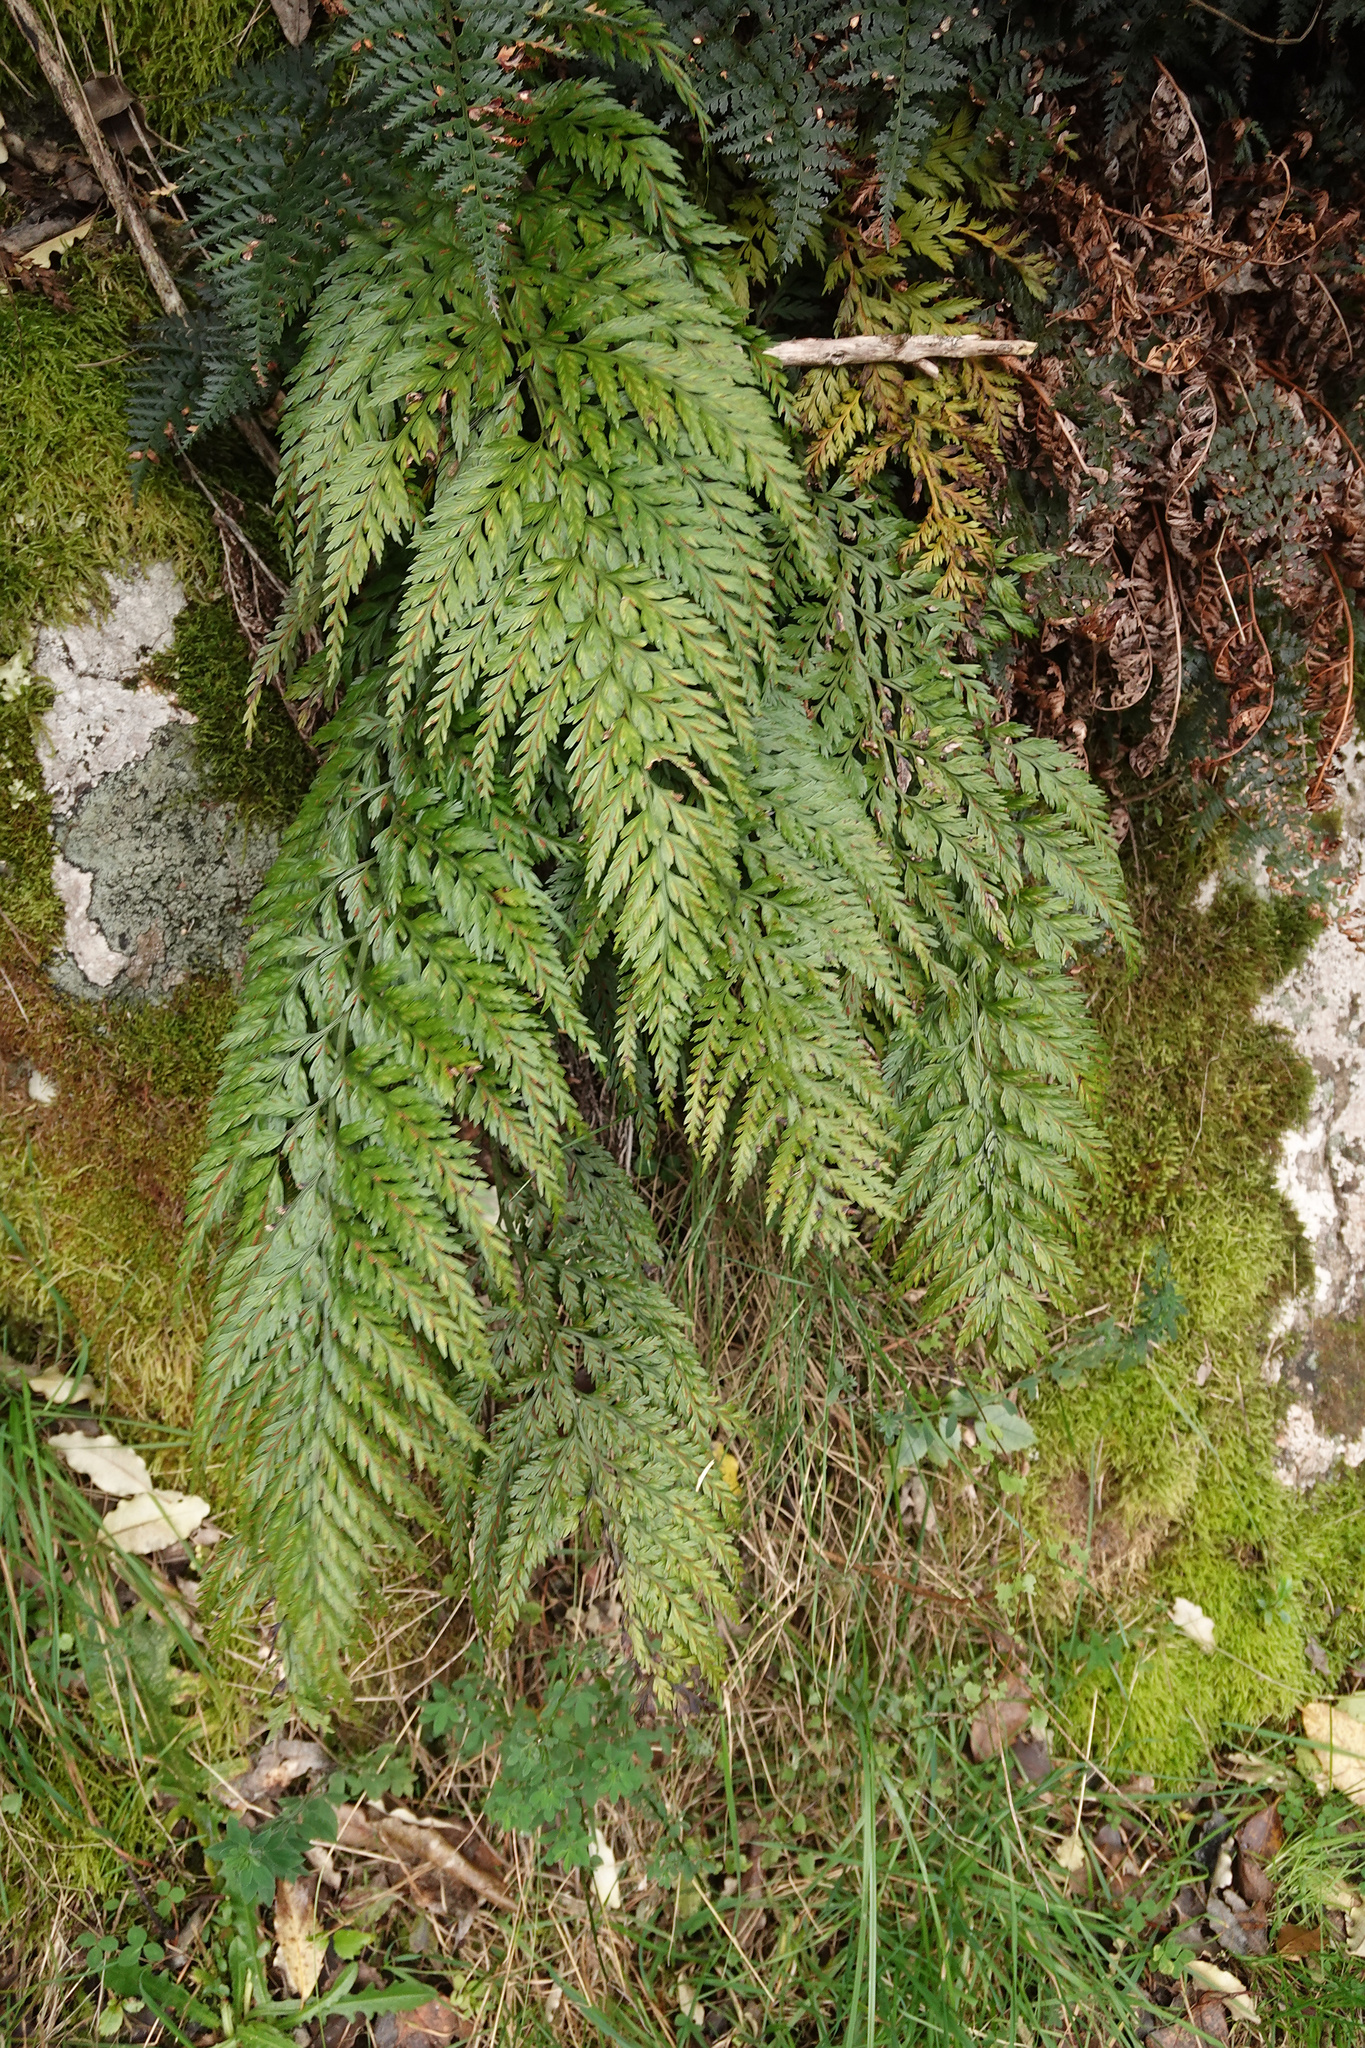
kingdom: Plantae
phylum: Tracheophyta
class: Polypodiopsida
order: Polypodiales
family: Aspleniaceae
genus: Asplenium
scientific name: Asplenium
